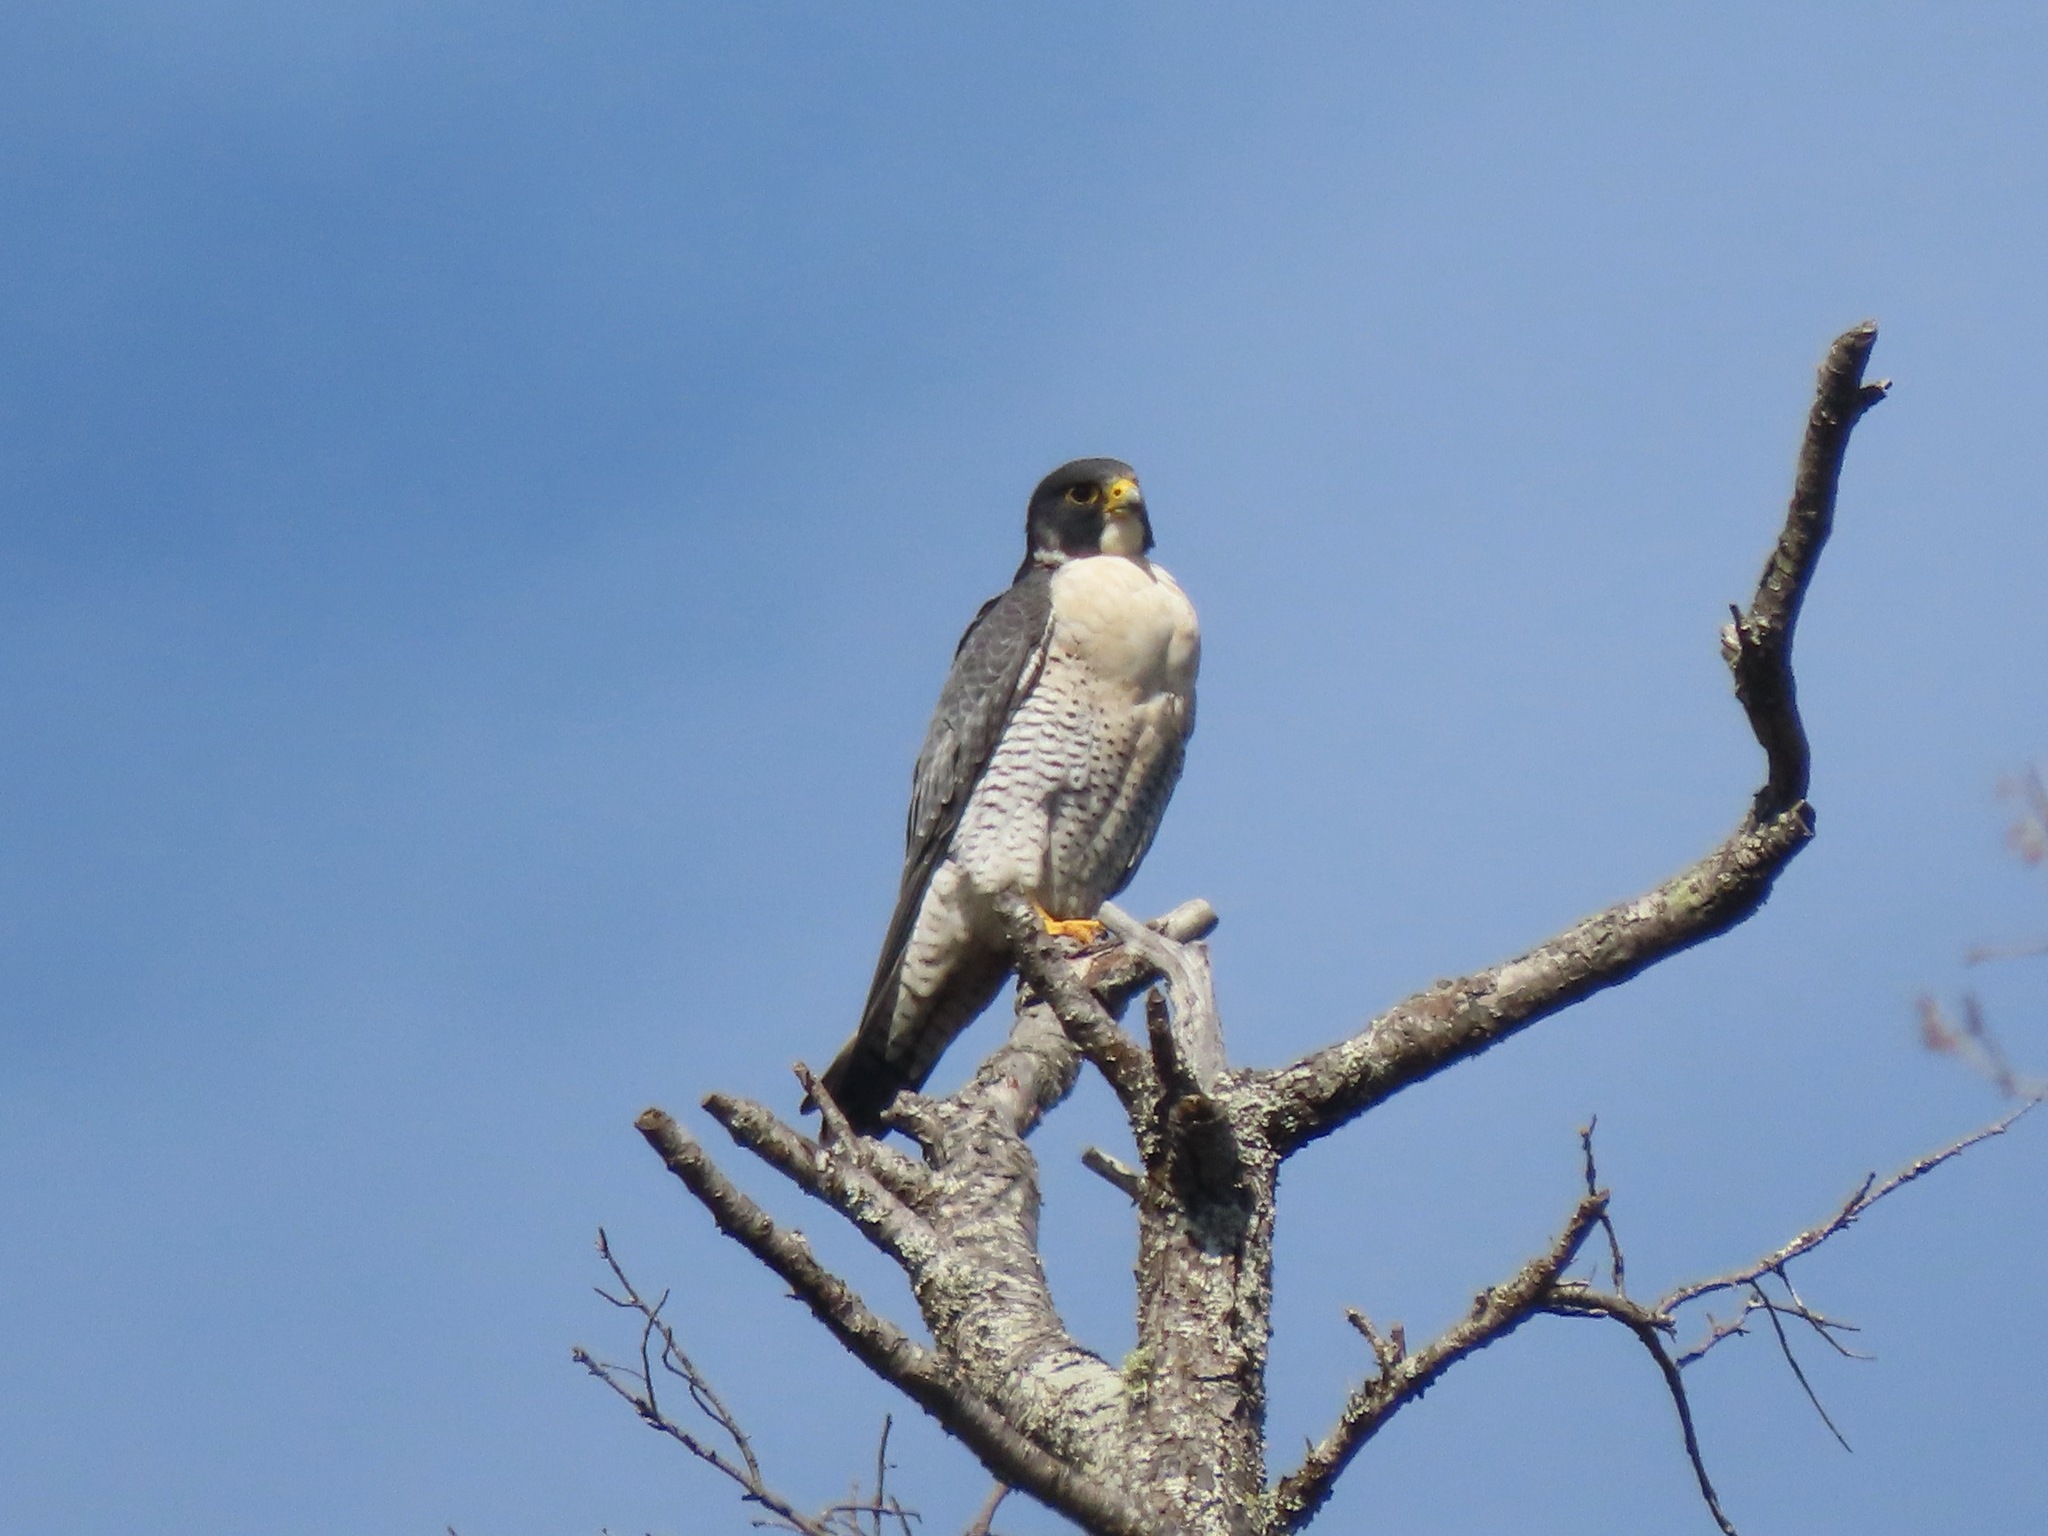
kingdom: Animalia
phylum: Chordata
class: Aves
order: Falconiformes
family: Falconidae
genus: Falco
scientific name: Falco peregrinus
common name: Peregrine falcon
